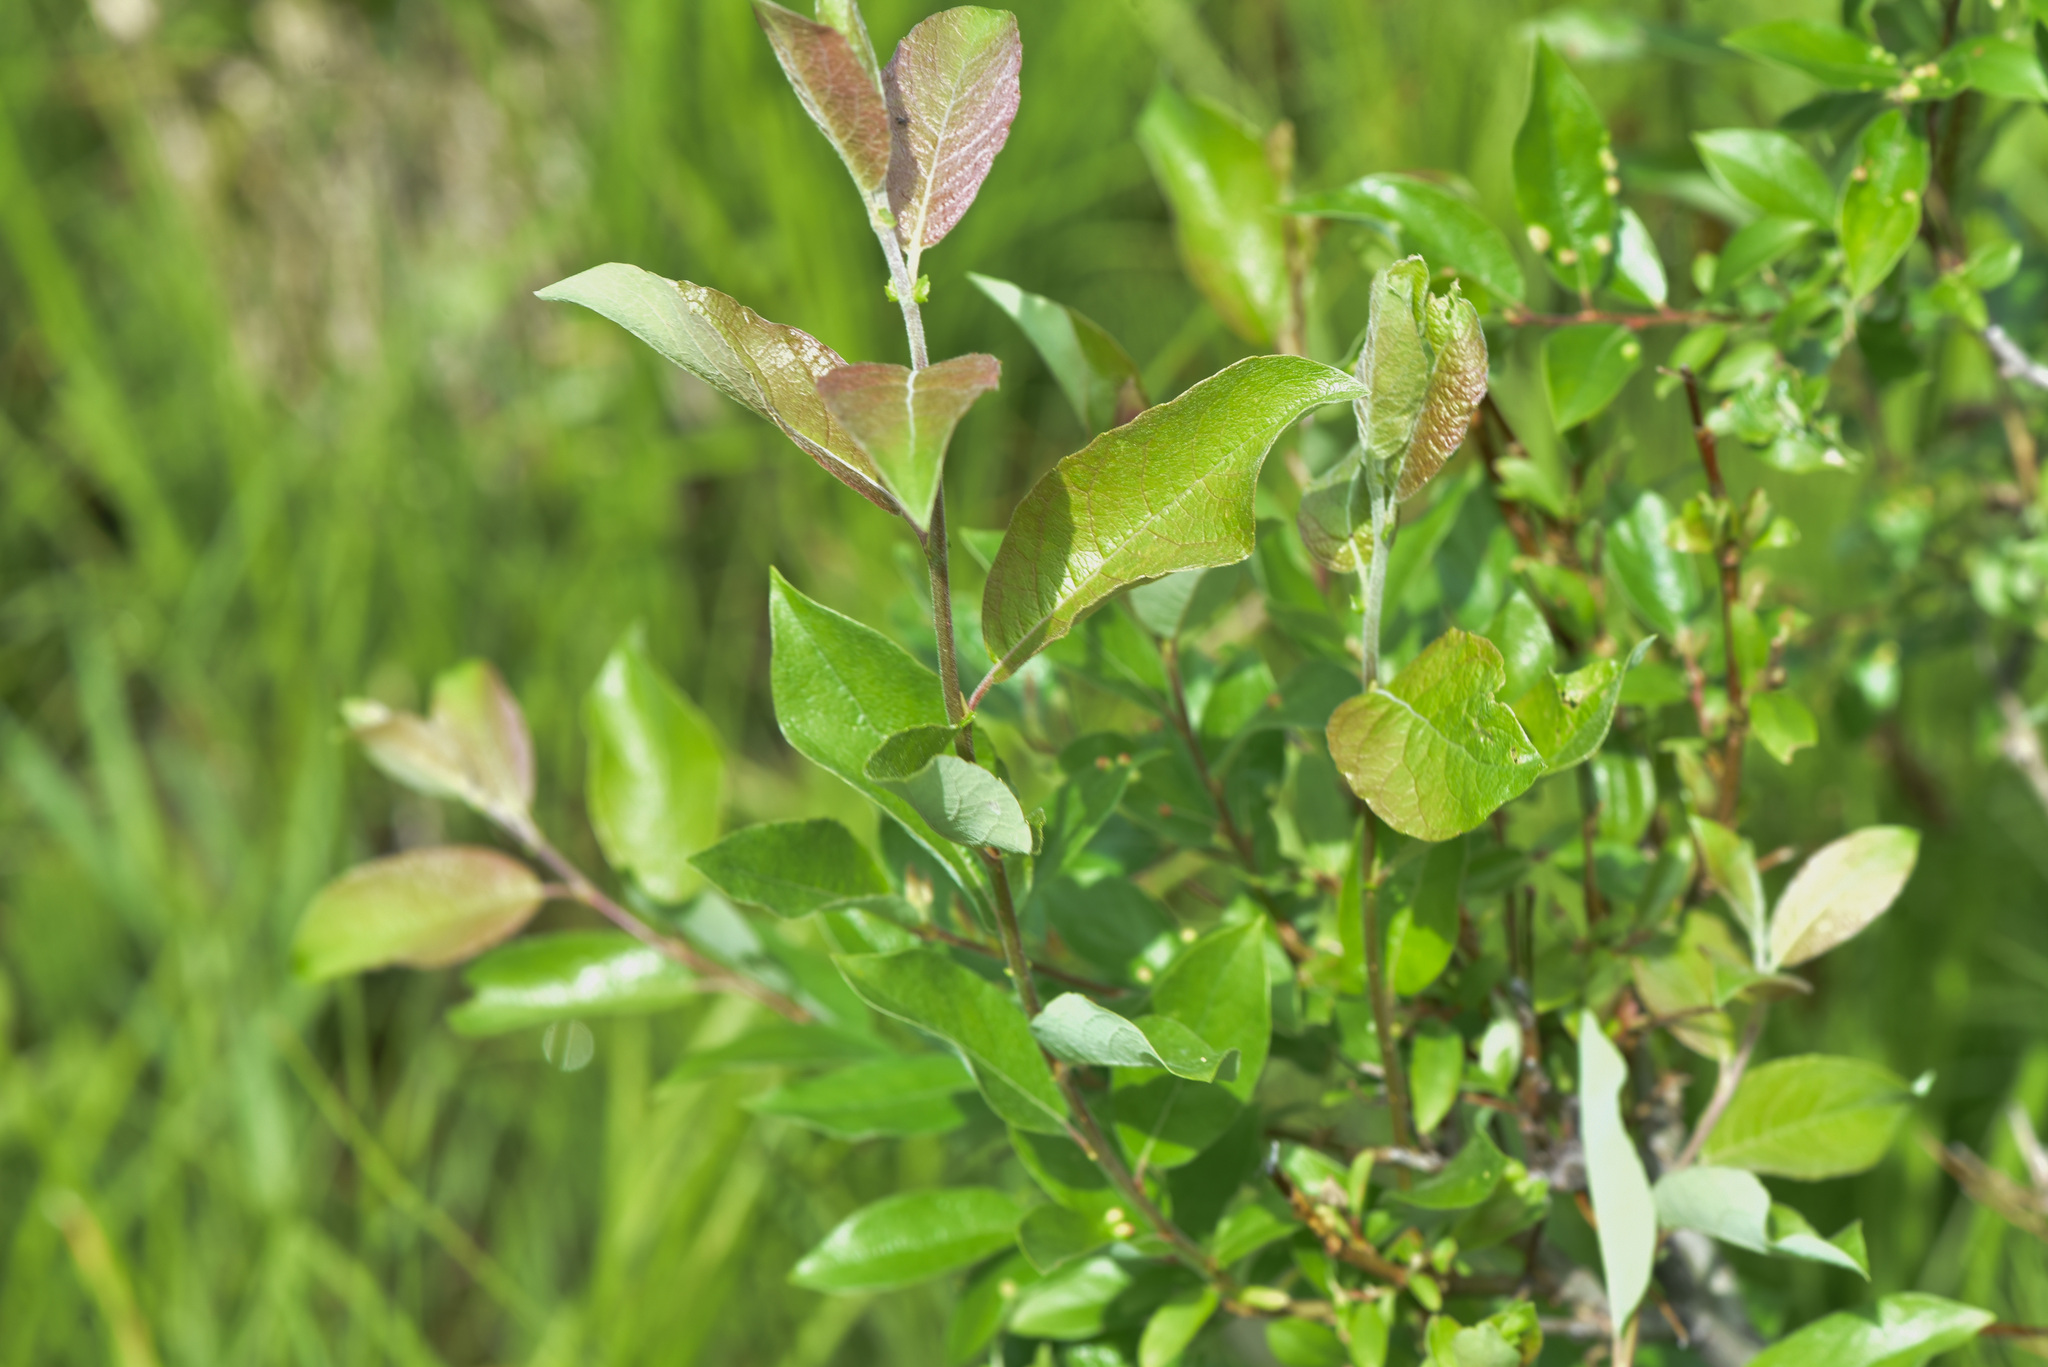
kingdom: Plantae
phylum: Tracheophyta
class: Magnoliopsida
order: Malpighiales
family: Salicaceae
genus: Salix
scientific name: Salix bebbiana
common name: Bebb's willow
